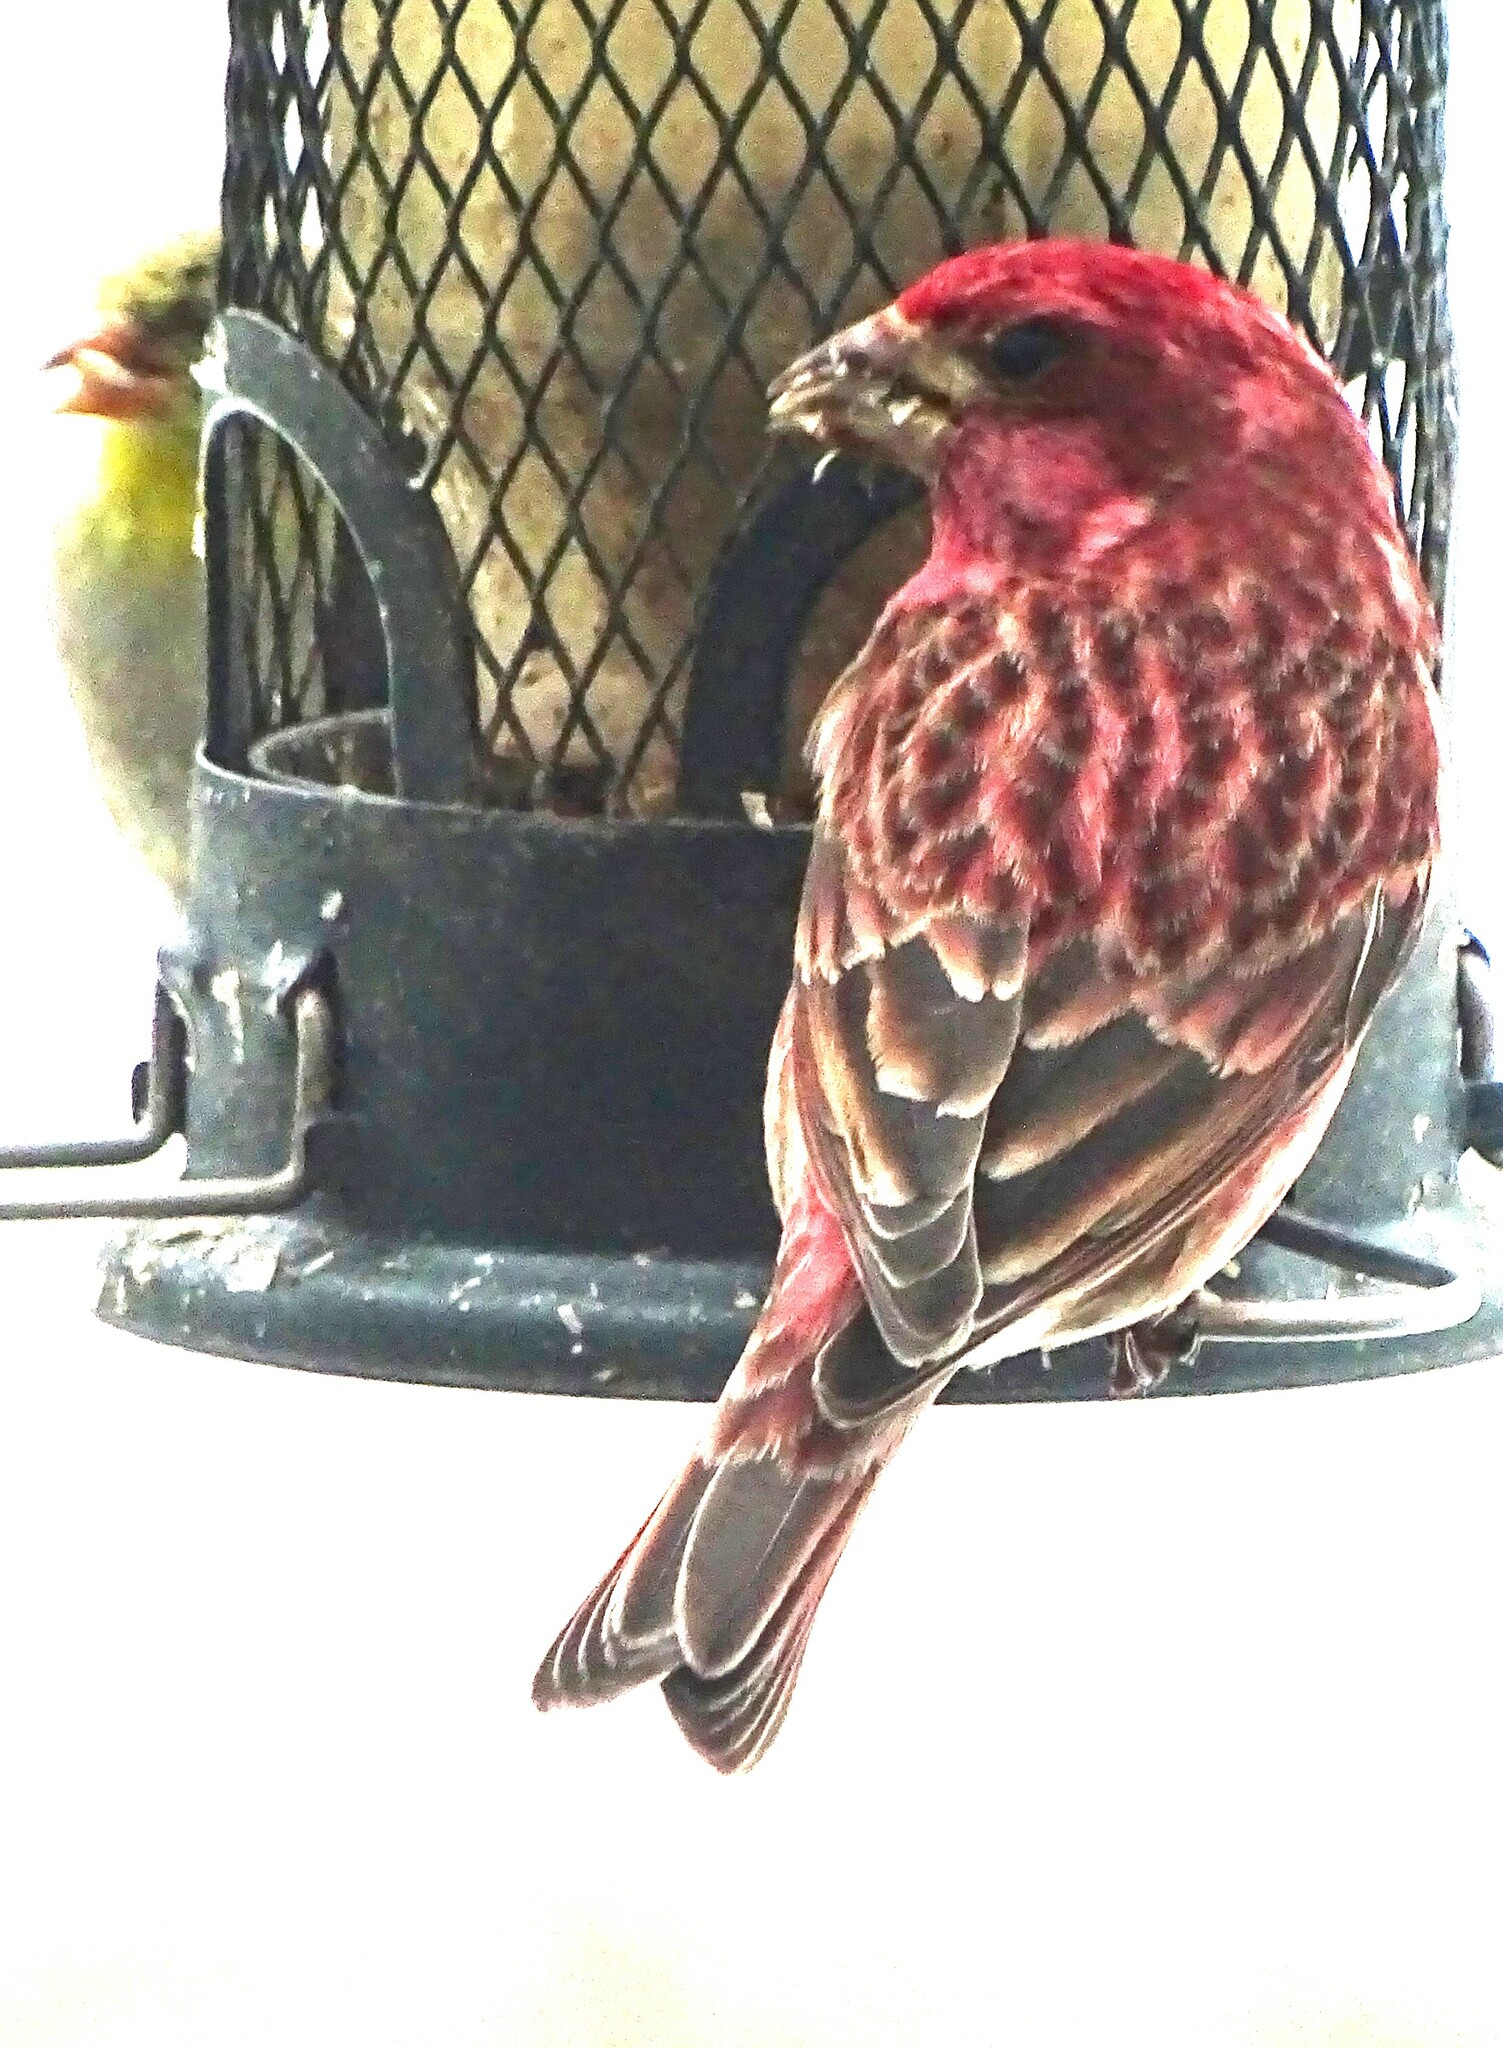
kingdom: Animalia
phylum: Chordata
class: Aves
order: Passeriformes
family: Fringillidae
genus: Haemorhous
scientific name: Haemorhous purpureus
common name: Purple finch
